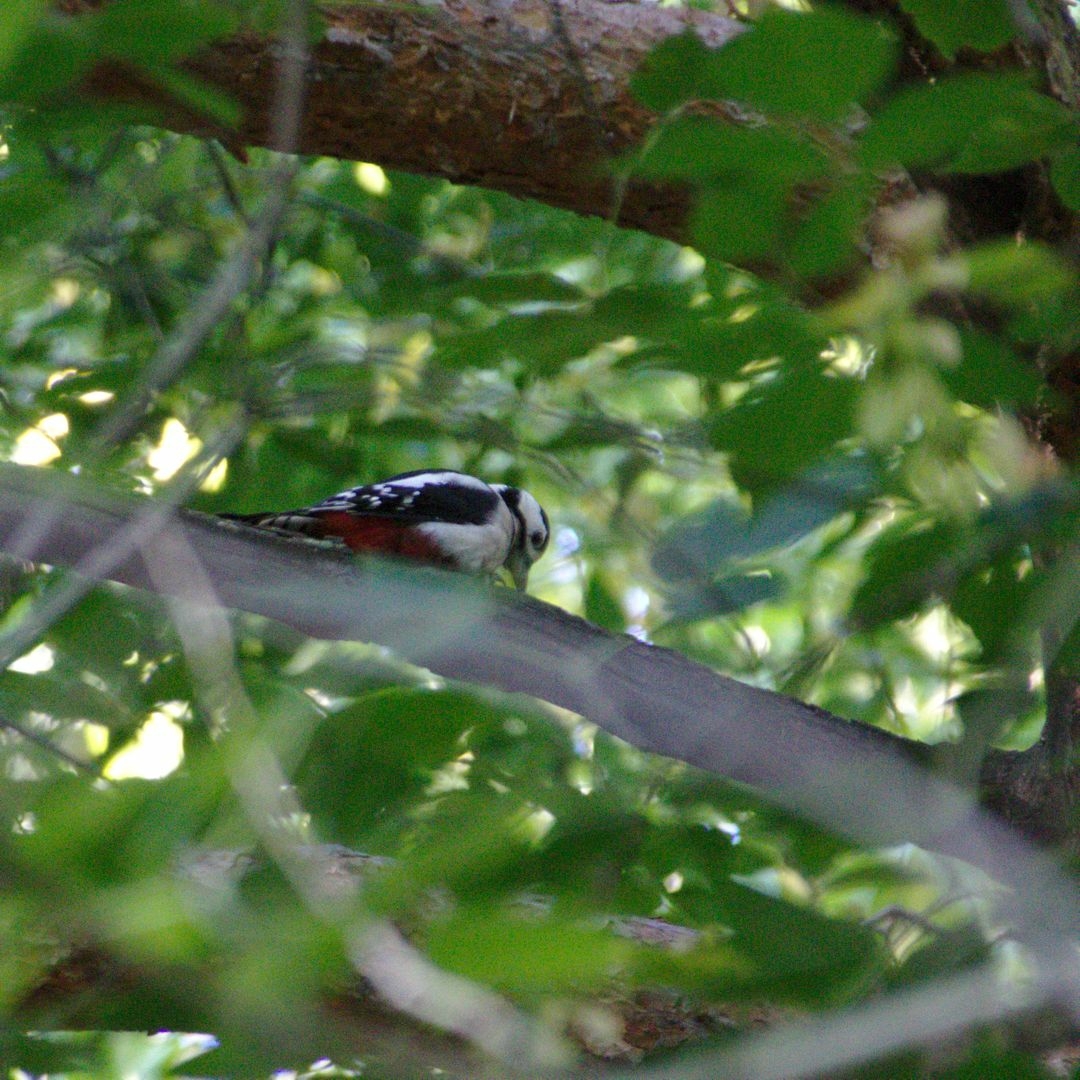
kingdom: Animalia
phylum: Chordata
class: Aves
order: Piciformes
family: Picidae
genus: Dendrocopos
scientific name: Dendrocopos major
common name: Great spotted woodpecker
